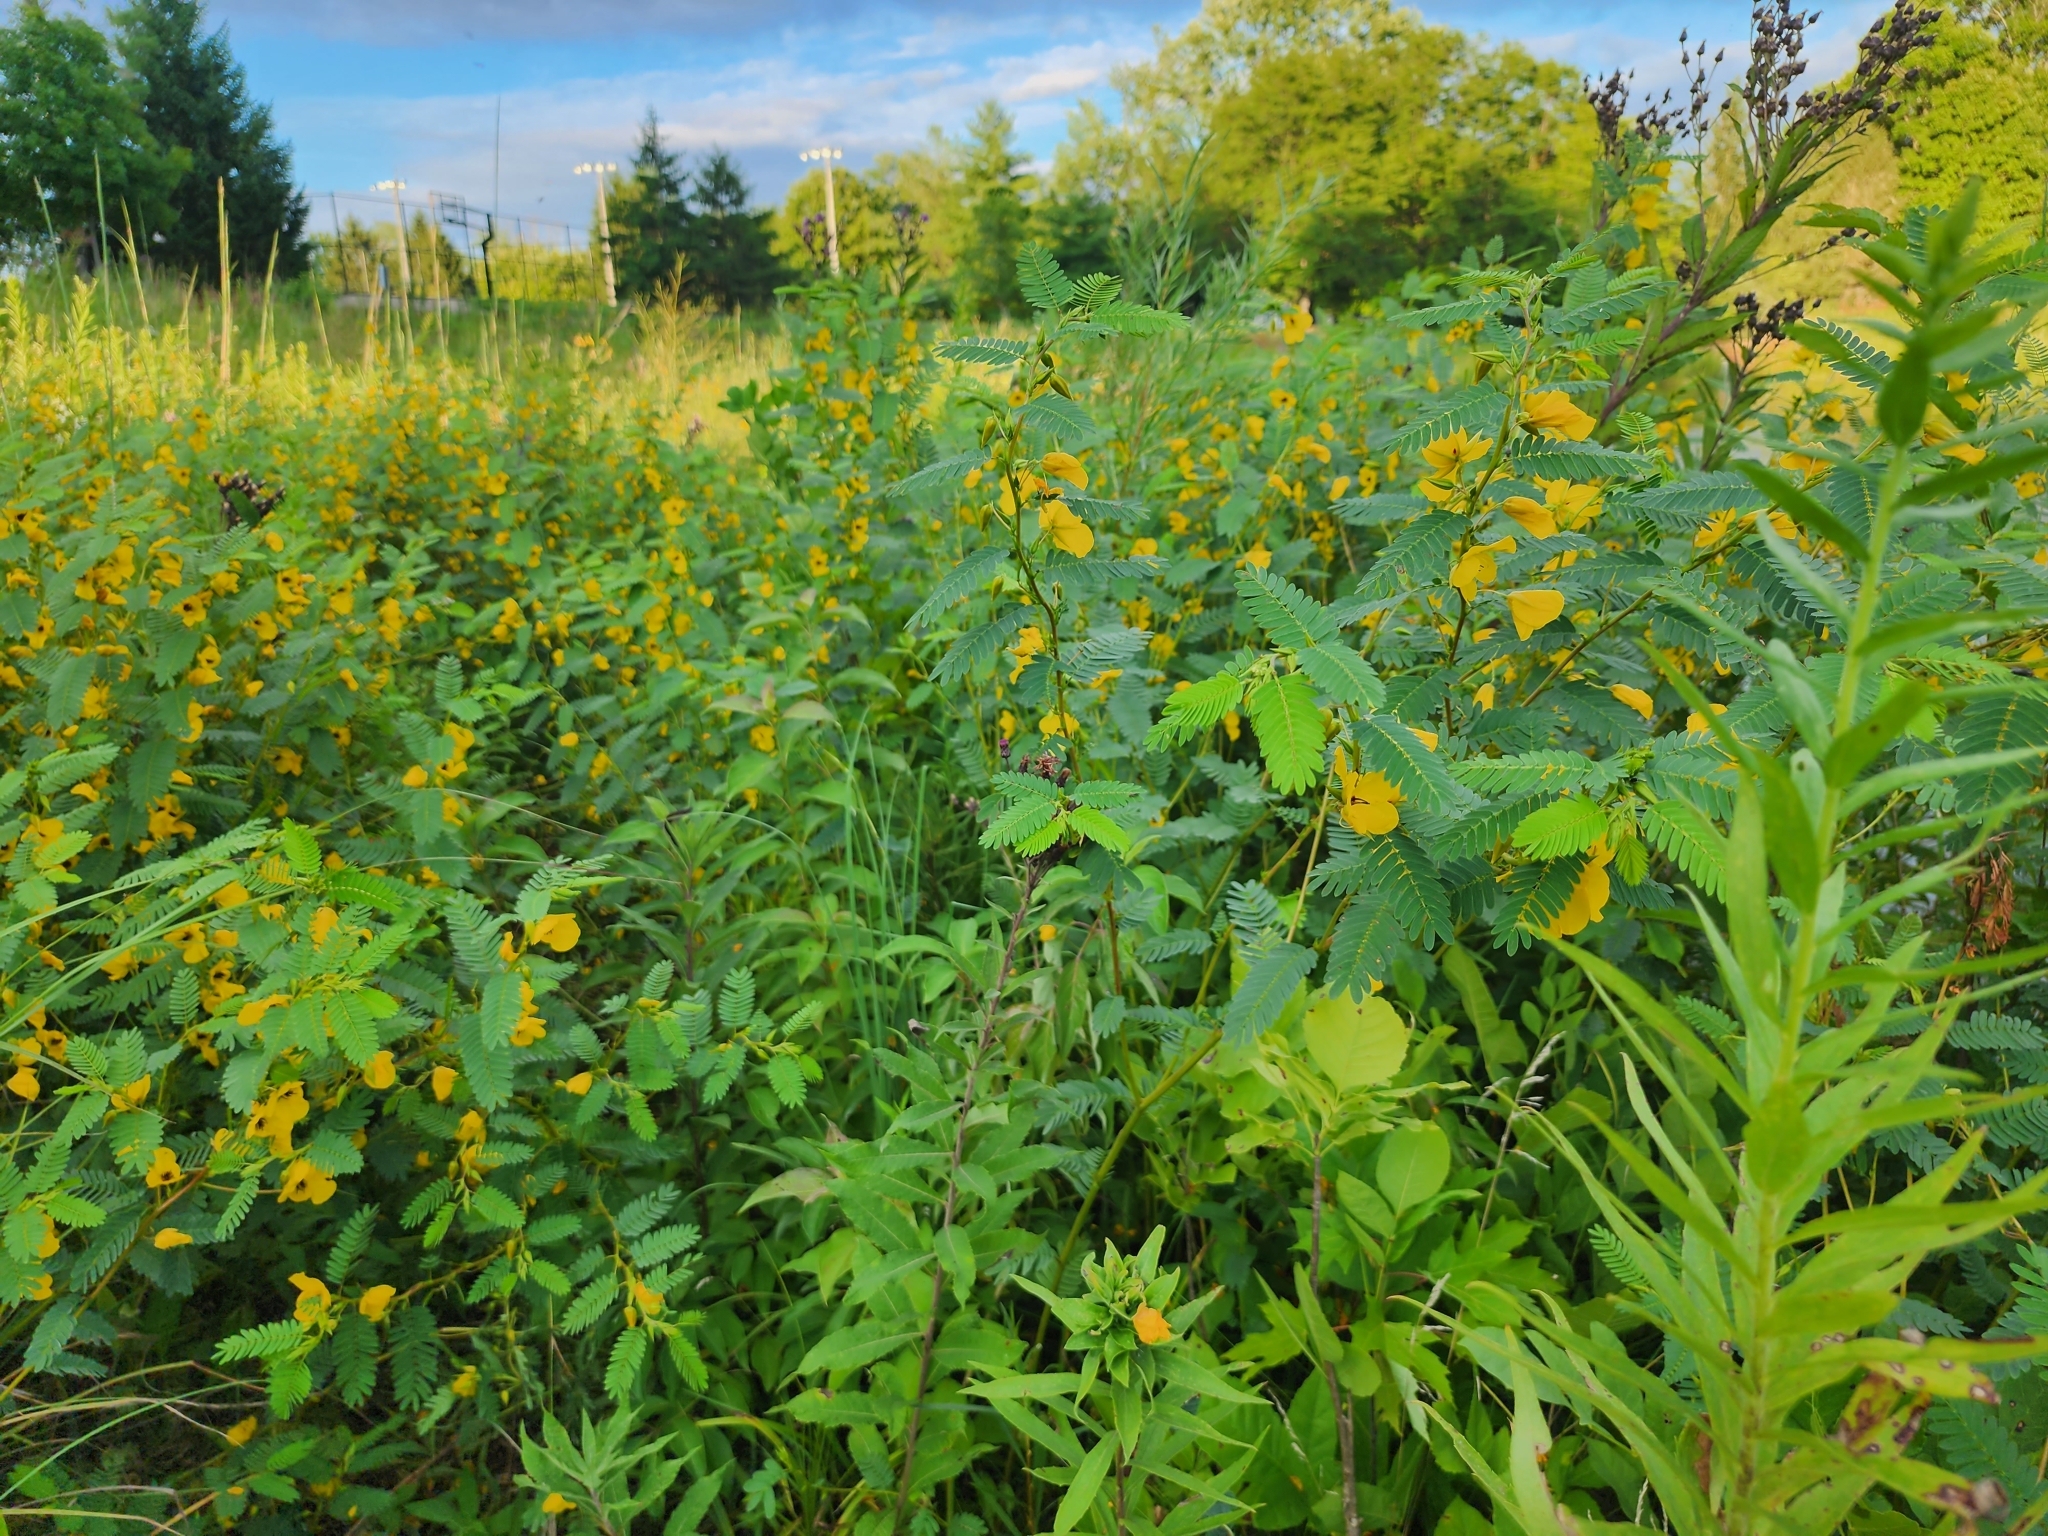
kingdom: Plantae
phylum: Tracheophyta
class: Magnoliopsida
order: Fabales
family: Fabaceae
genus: Chamaecrista
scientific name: Chamaecrista fasciculata
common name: Golden cassia
